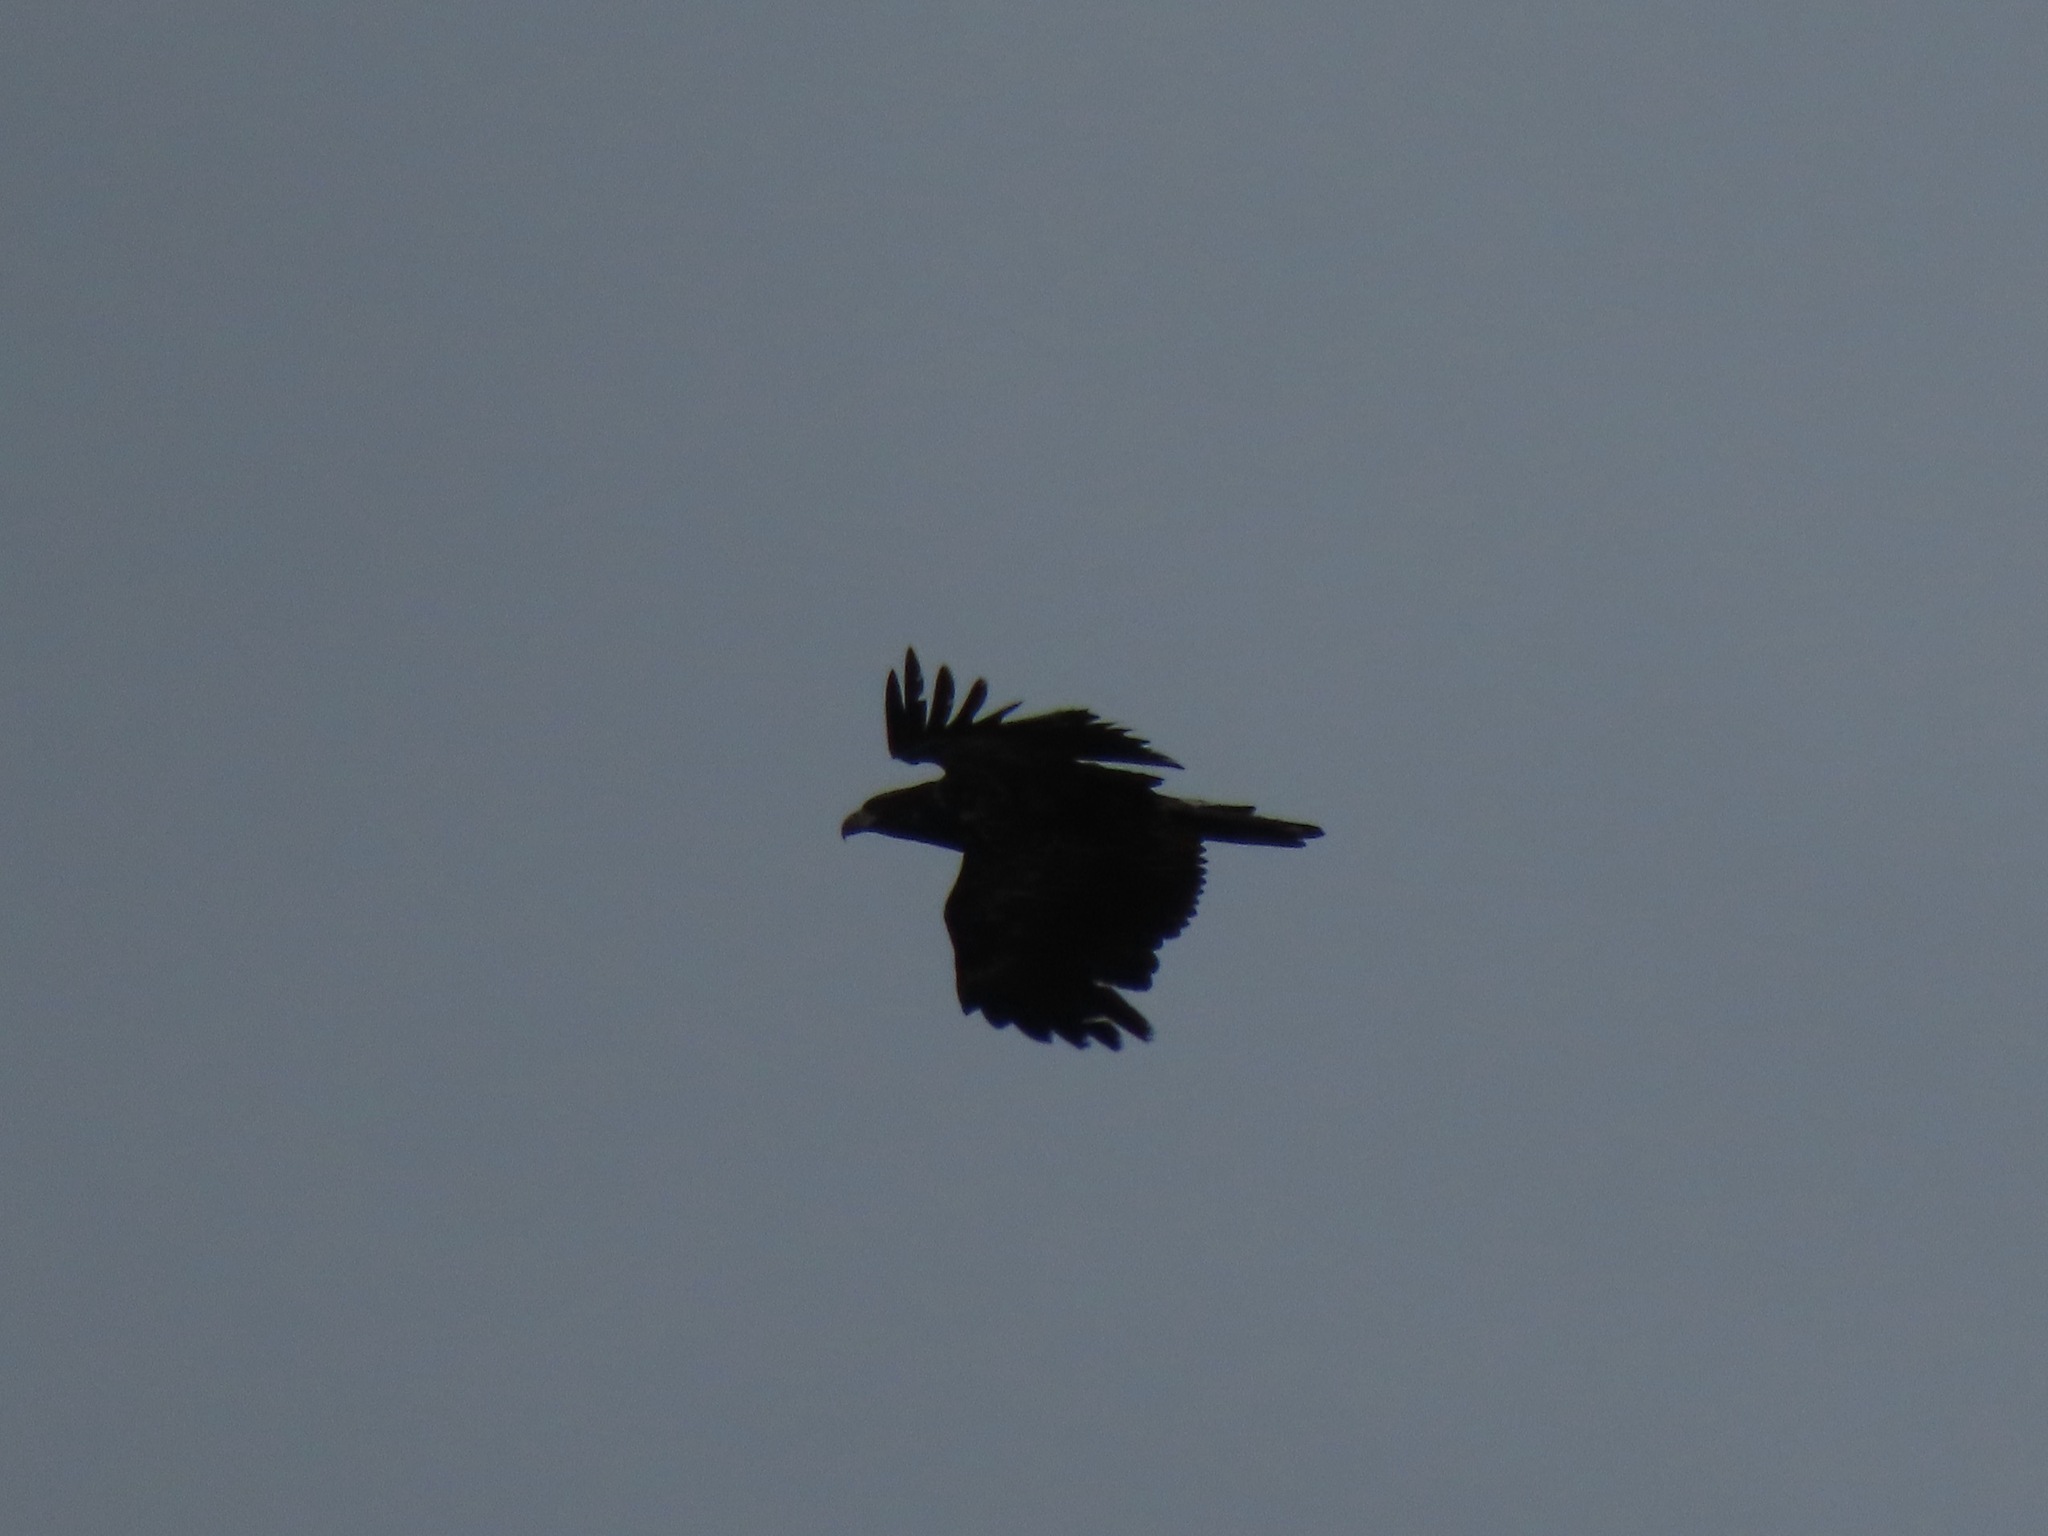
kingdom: Animalia
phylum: Chordata
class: Aves
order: Accipitriformes
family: Accipitridae
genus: Haliaeetus
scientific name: Haliaeetus leucocephalus
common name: Bald eagle
